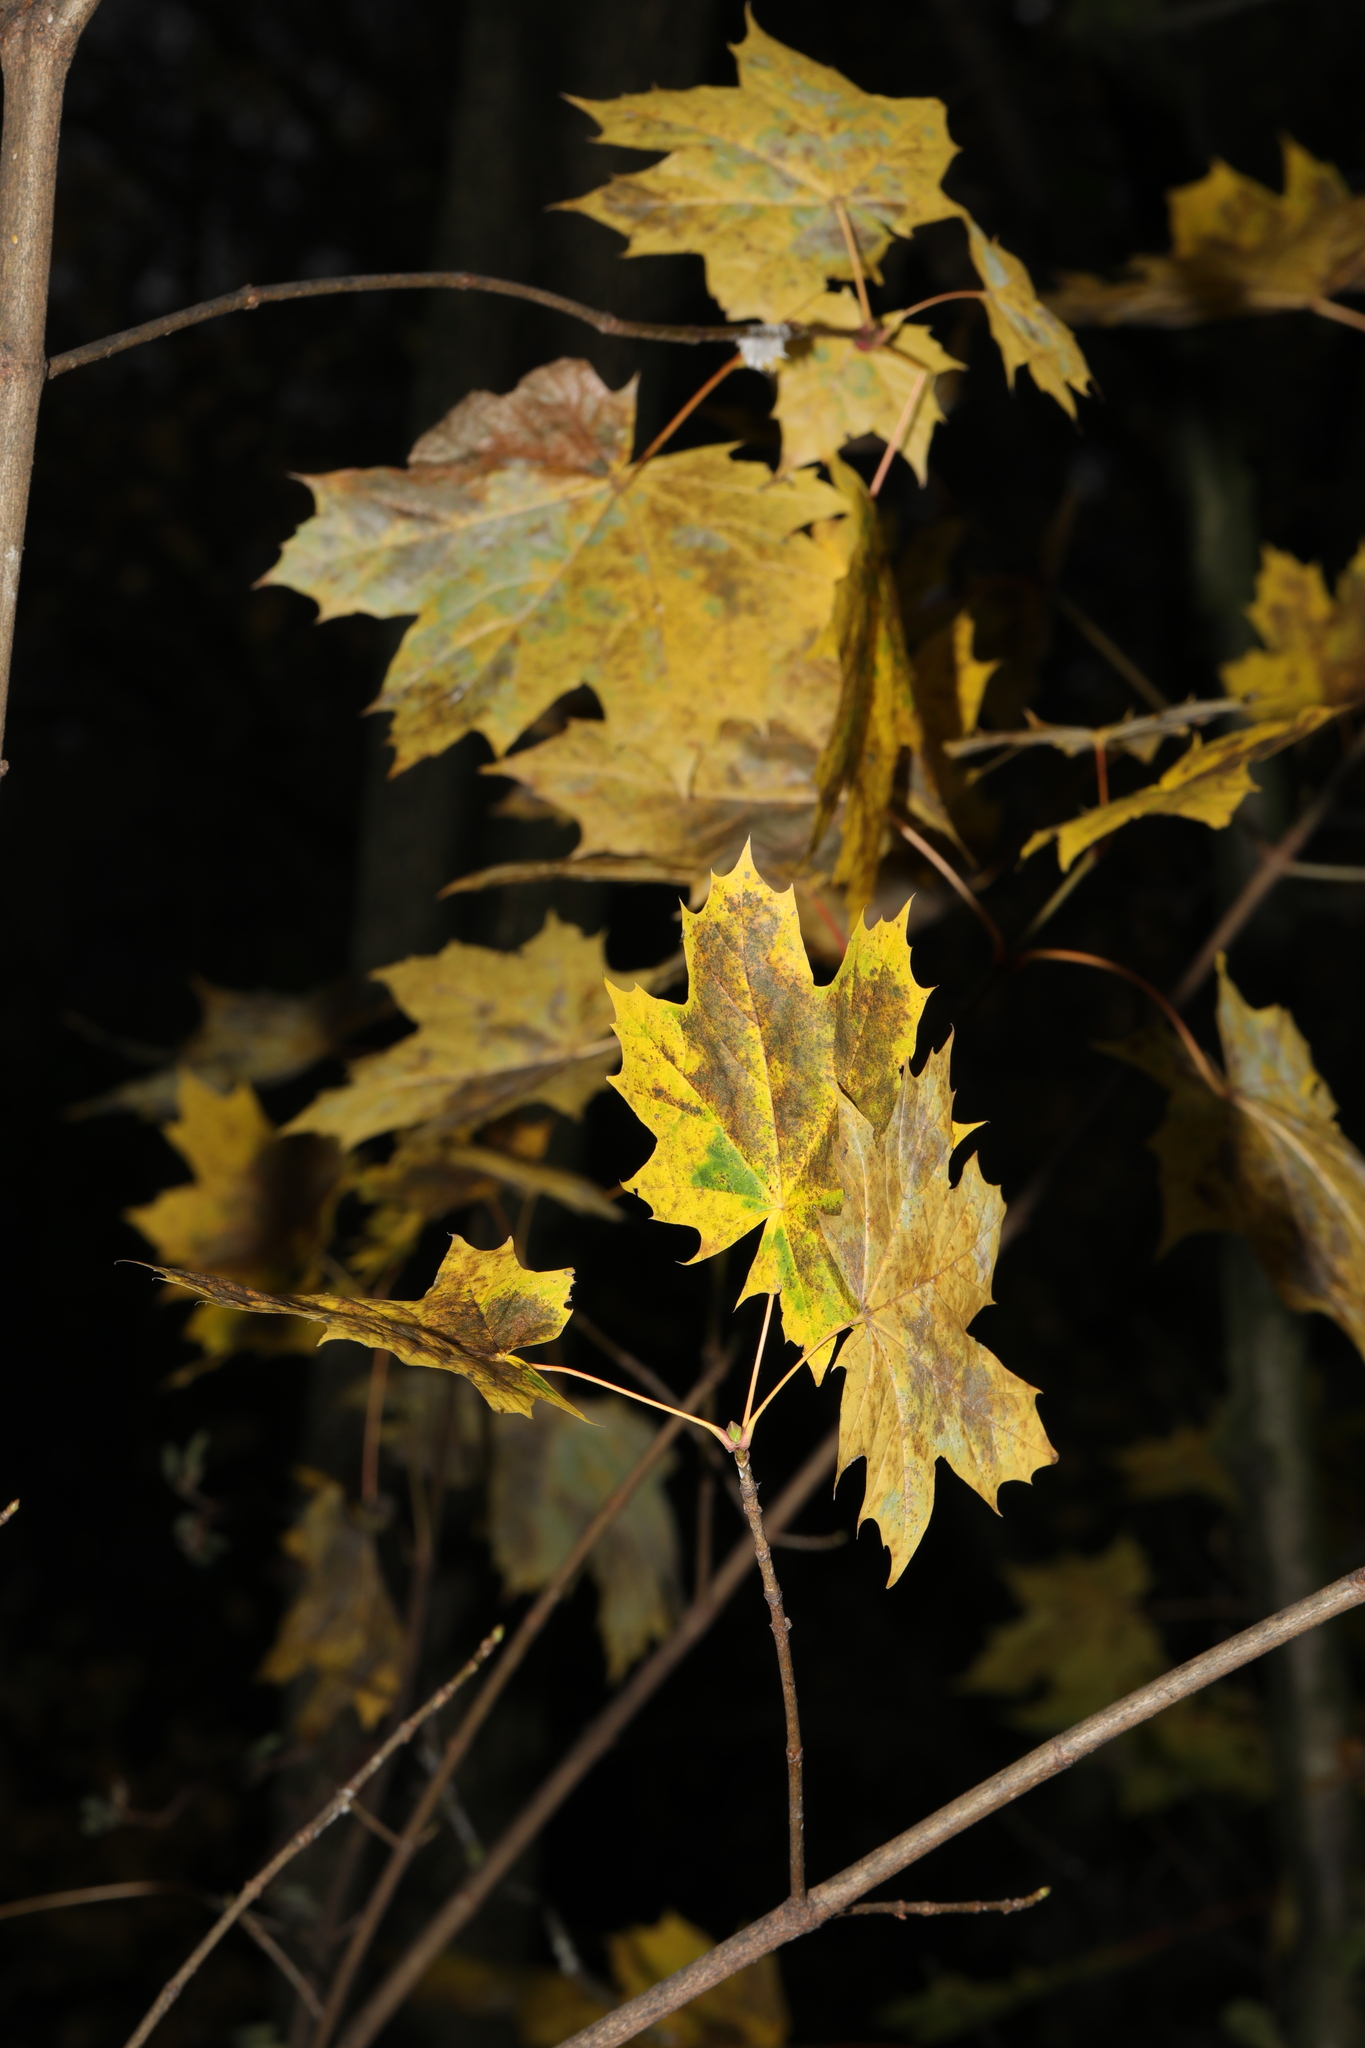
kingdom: Plantae
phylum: Tracheophyta
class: Magnoliopsida
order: Sapindales
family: Sapindaceae
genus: Acer
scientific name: Acer platanoides
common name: Norway maple
